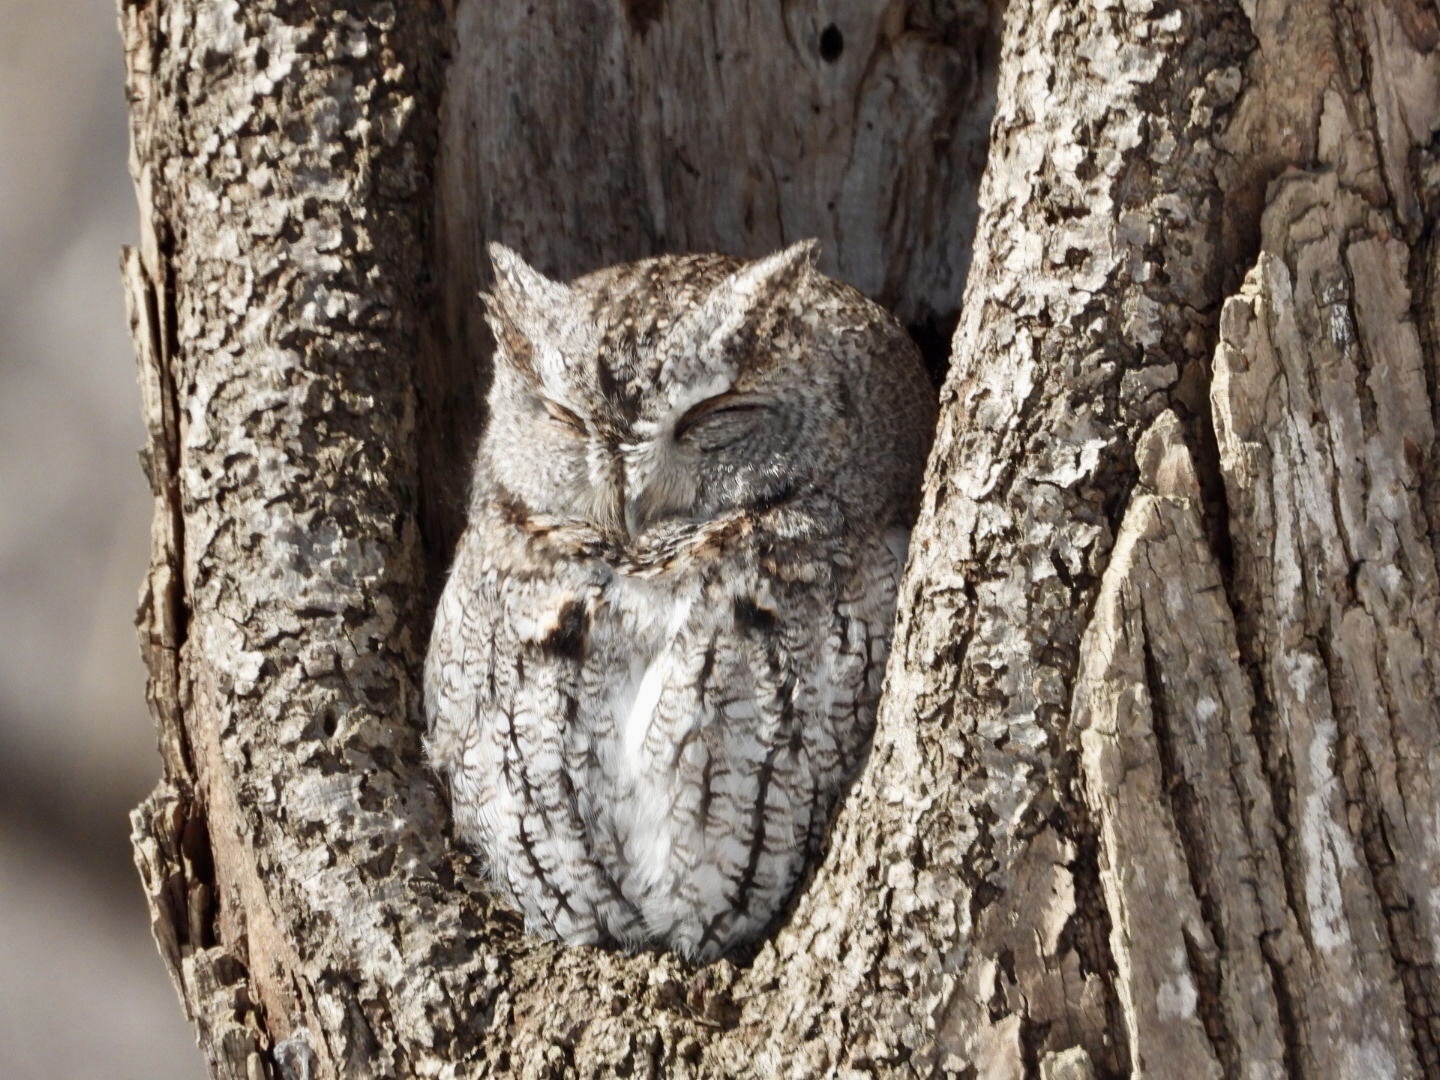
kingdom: Animalia
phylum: Chordata
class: Aves
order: Strigiformes
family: Strigidae
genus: Megascops
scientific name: Megascops asio
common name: Eastern screech-owl
